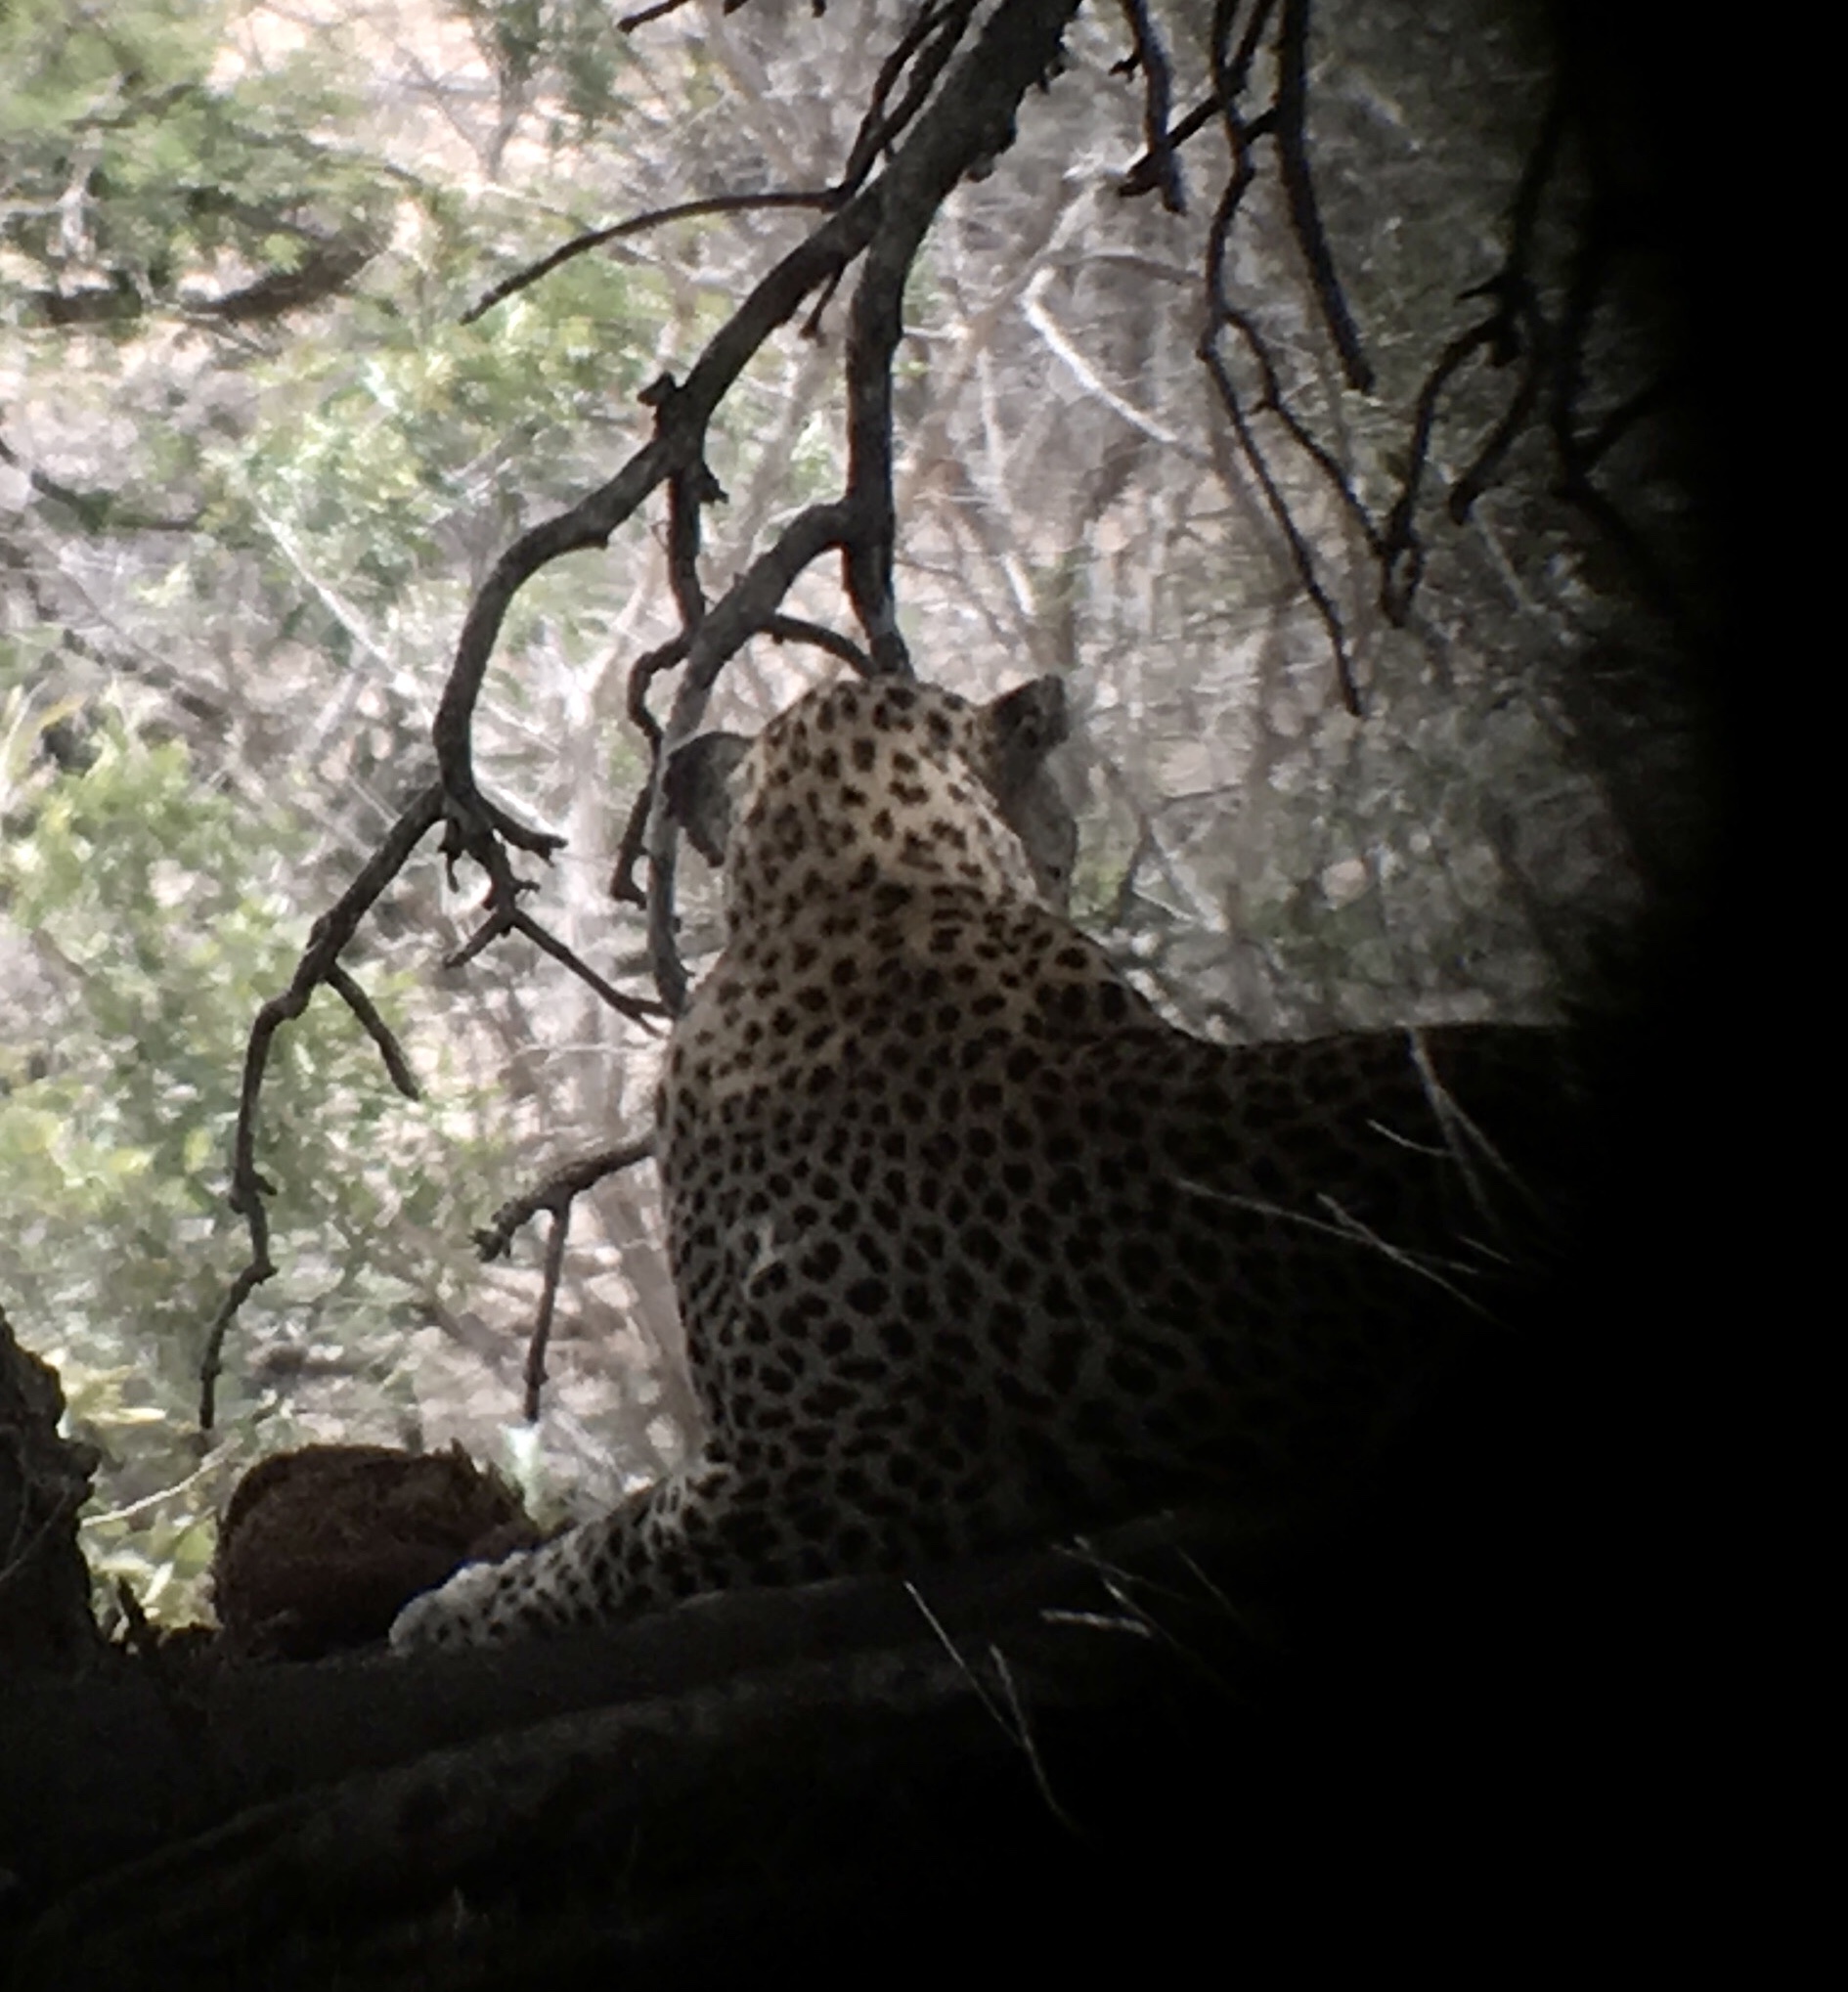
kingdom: Animalia
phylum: Chordata
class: Mammalia
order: Carnivora
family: Felidae
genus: Panthera
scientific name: Panthera pardus
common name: Leopard
